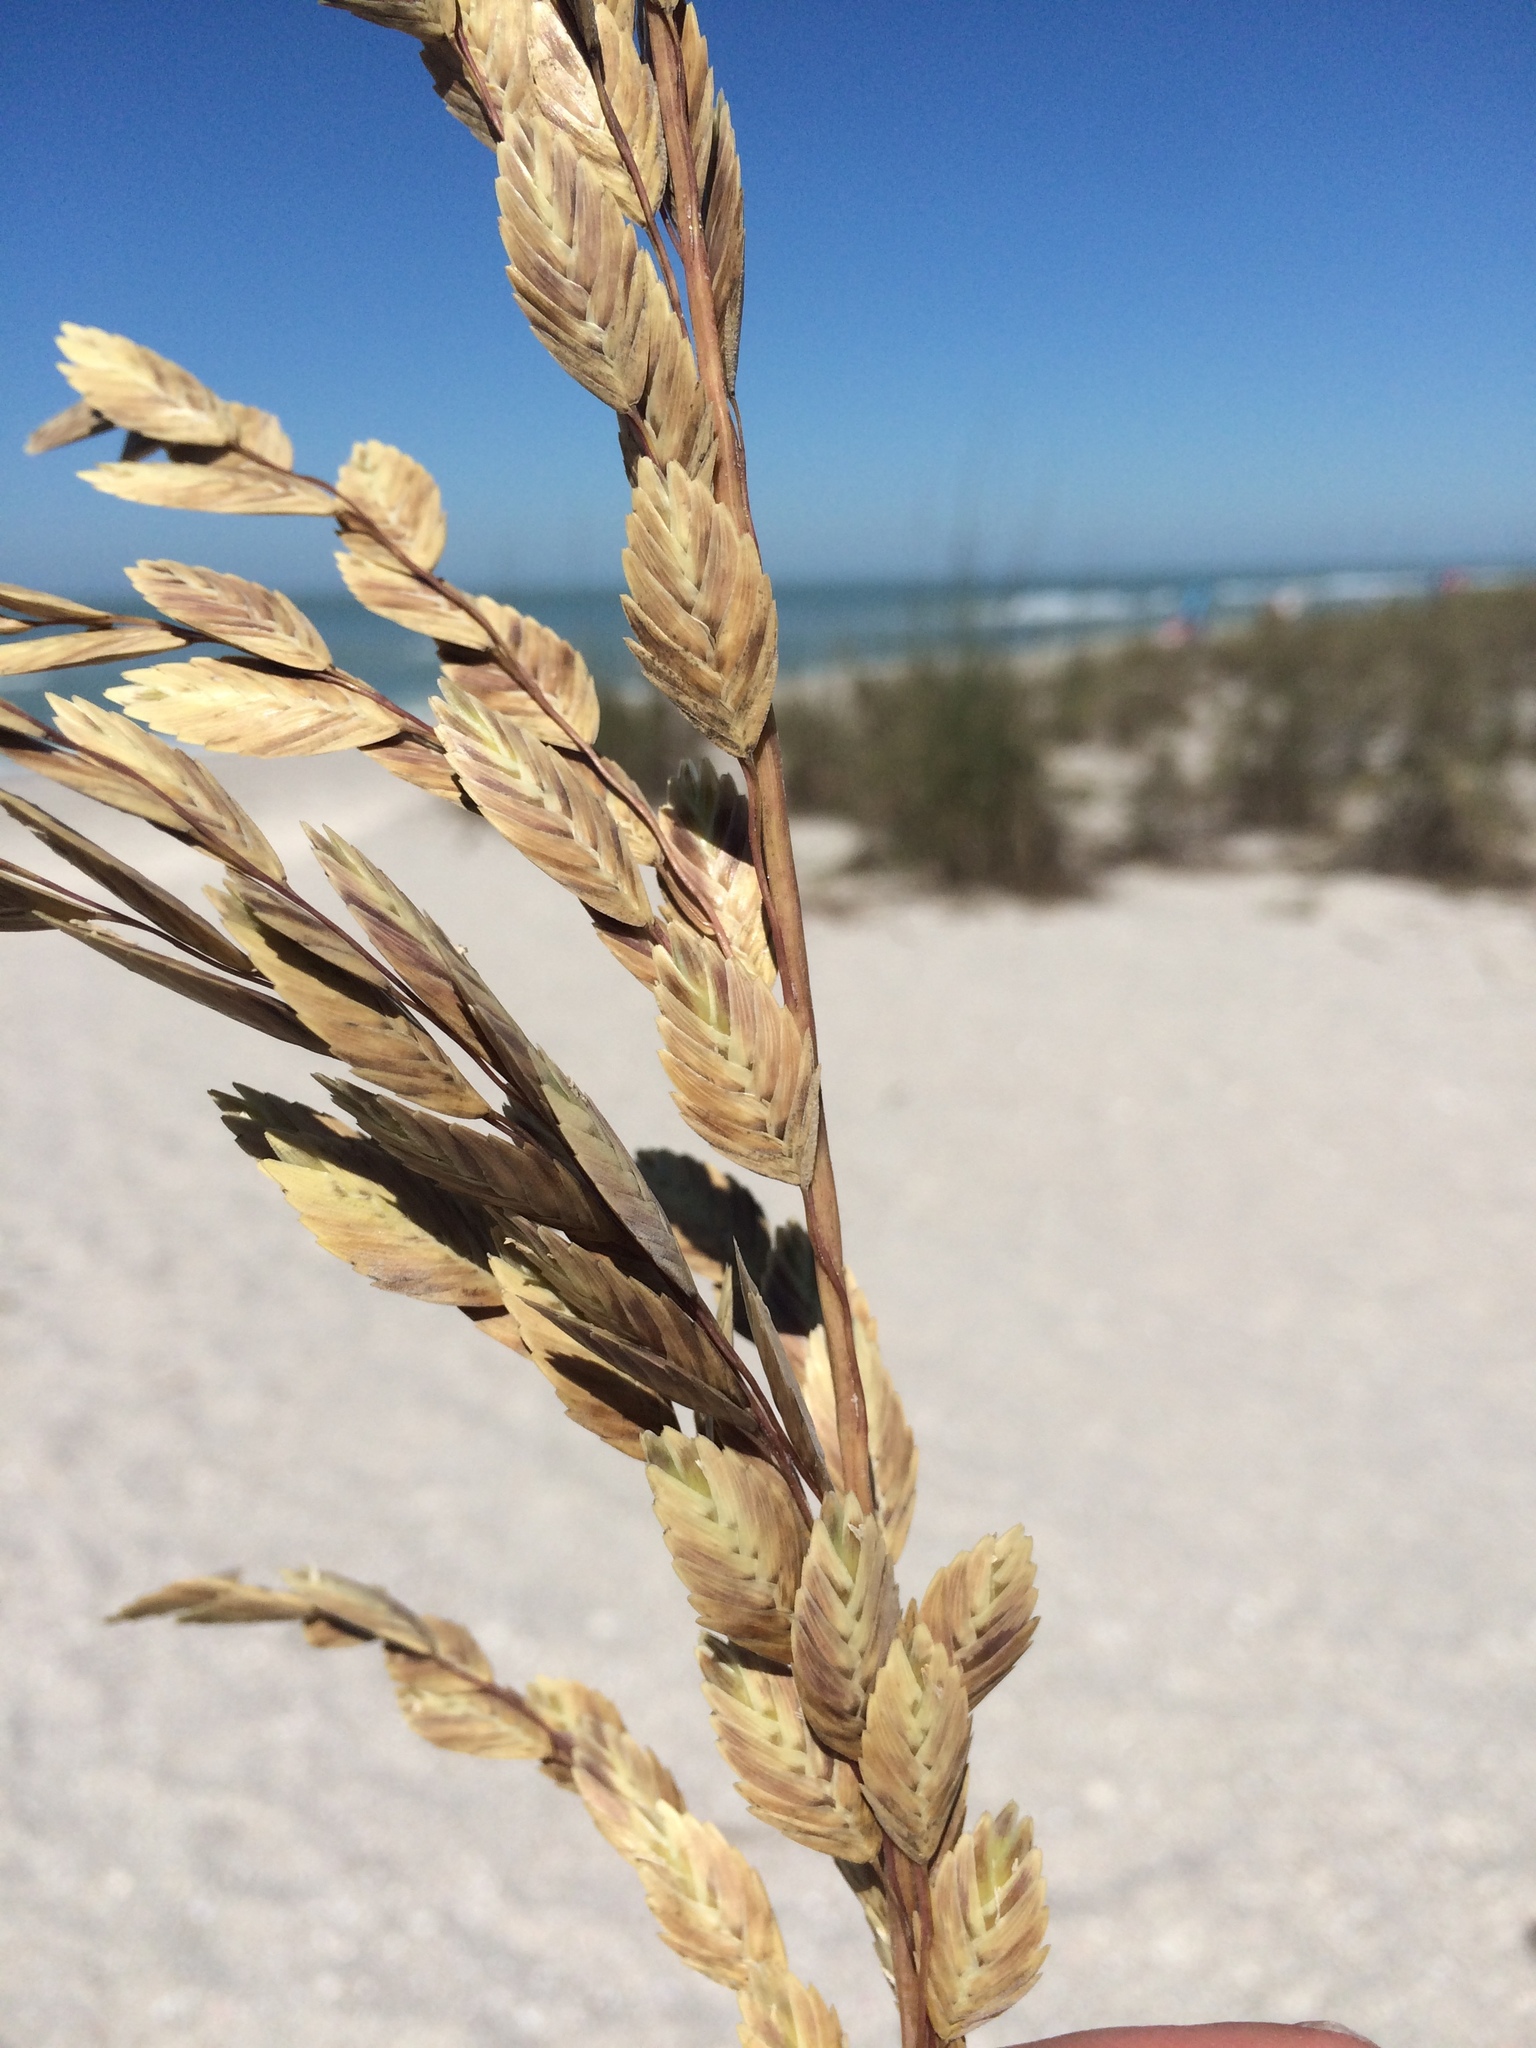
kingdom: Plantae
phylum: Tracheophyta
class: Liliopsida
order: Poales
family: Poaceae
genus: Uniola
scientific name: Uniola paniculata
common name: Seaside-oats
